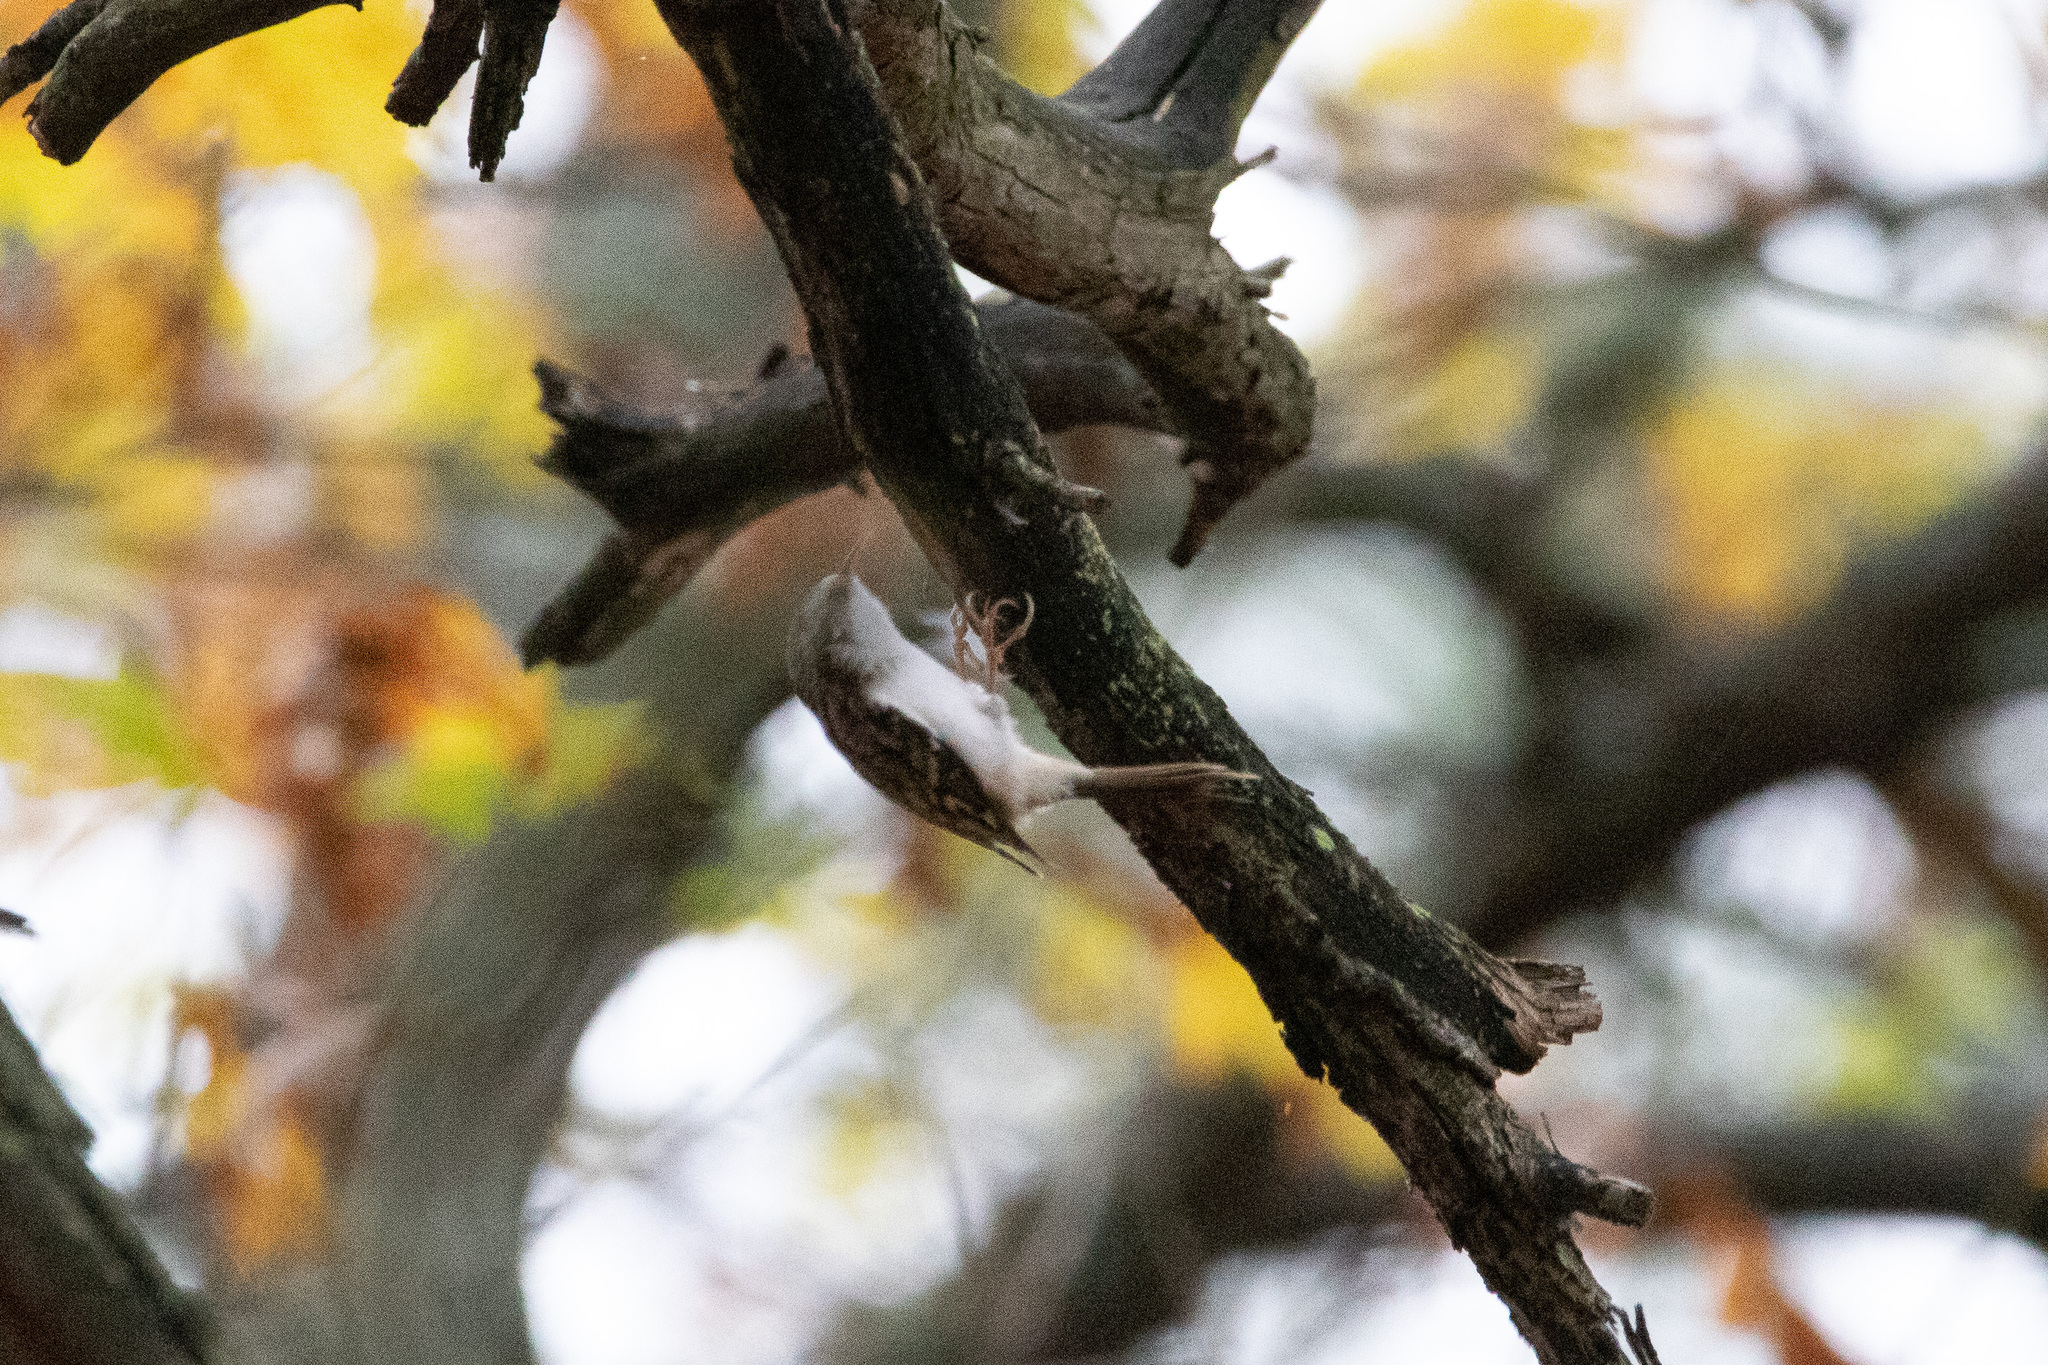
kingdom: Animalia
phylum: Chordata
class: Aves
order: Passeriformes
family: Certhiidae
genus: Certhia
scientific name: Certhia familiaris
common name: Eurasian treecreeper
